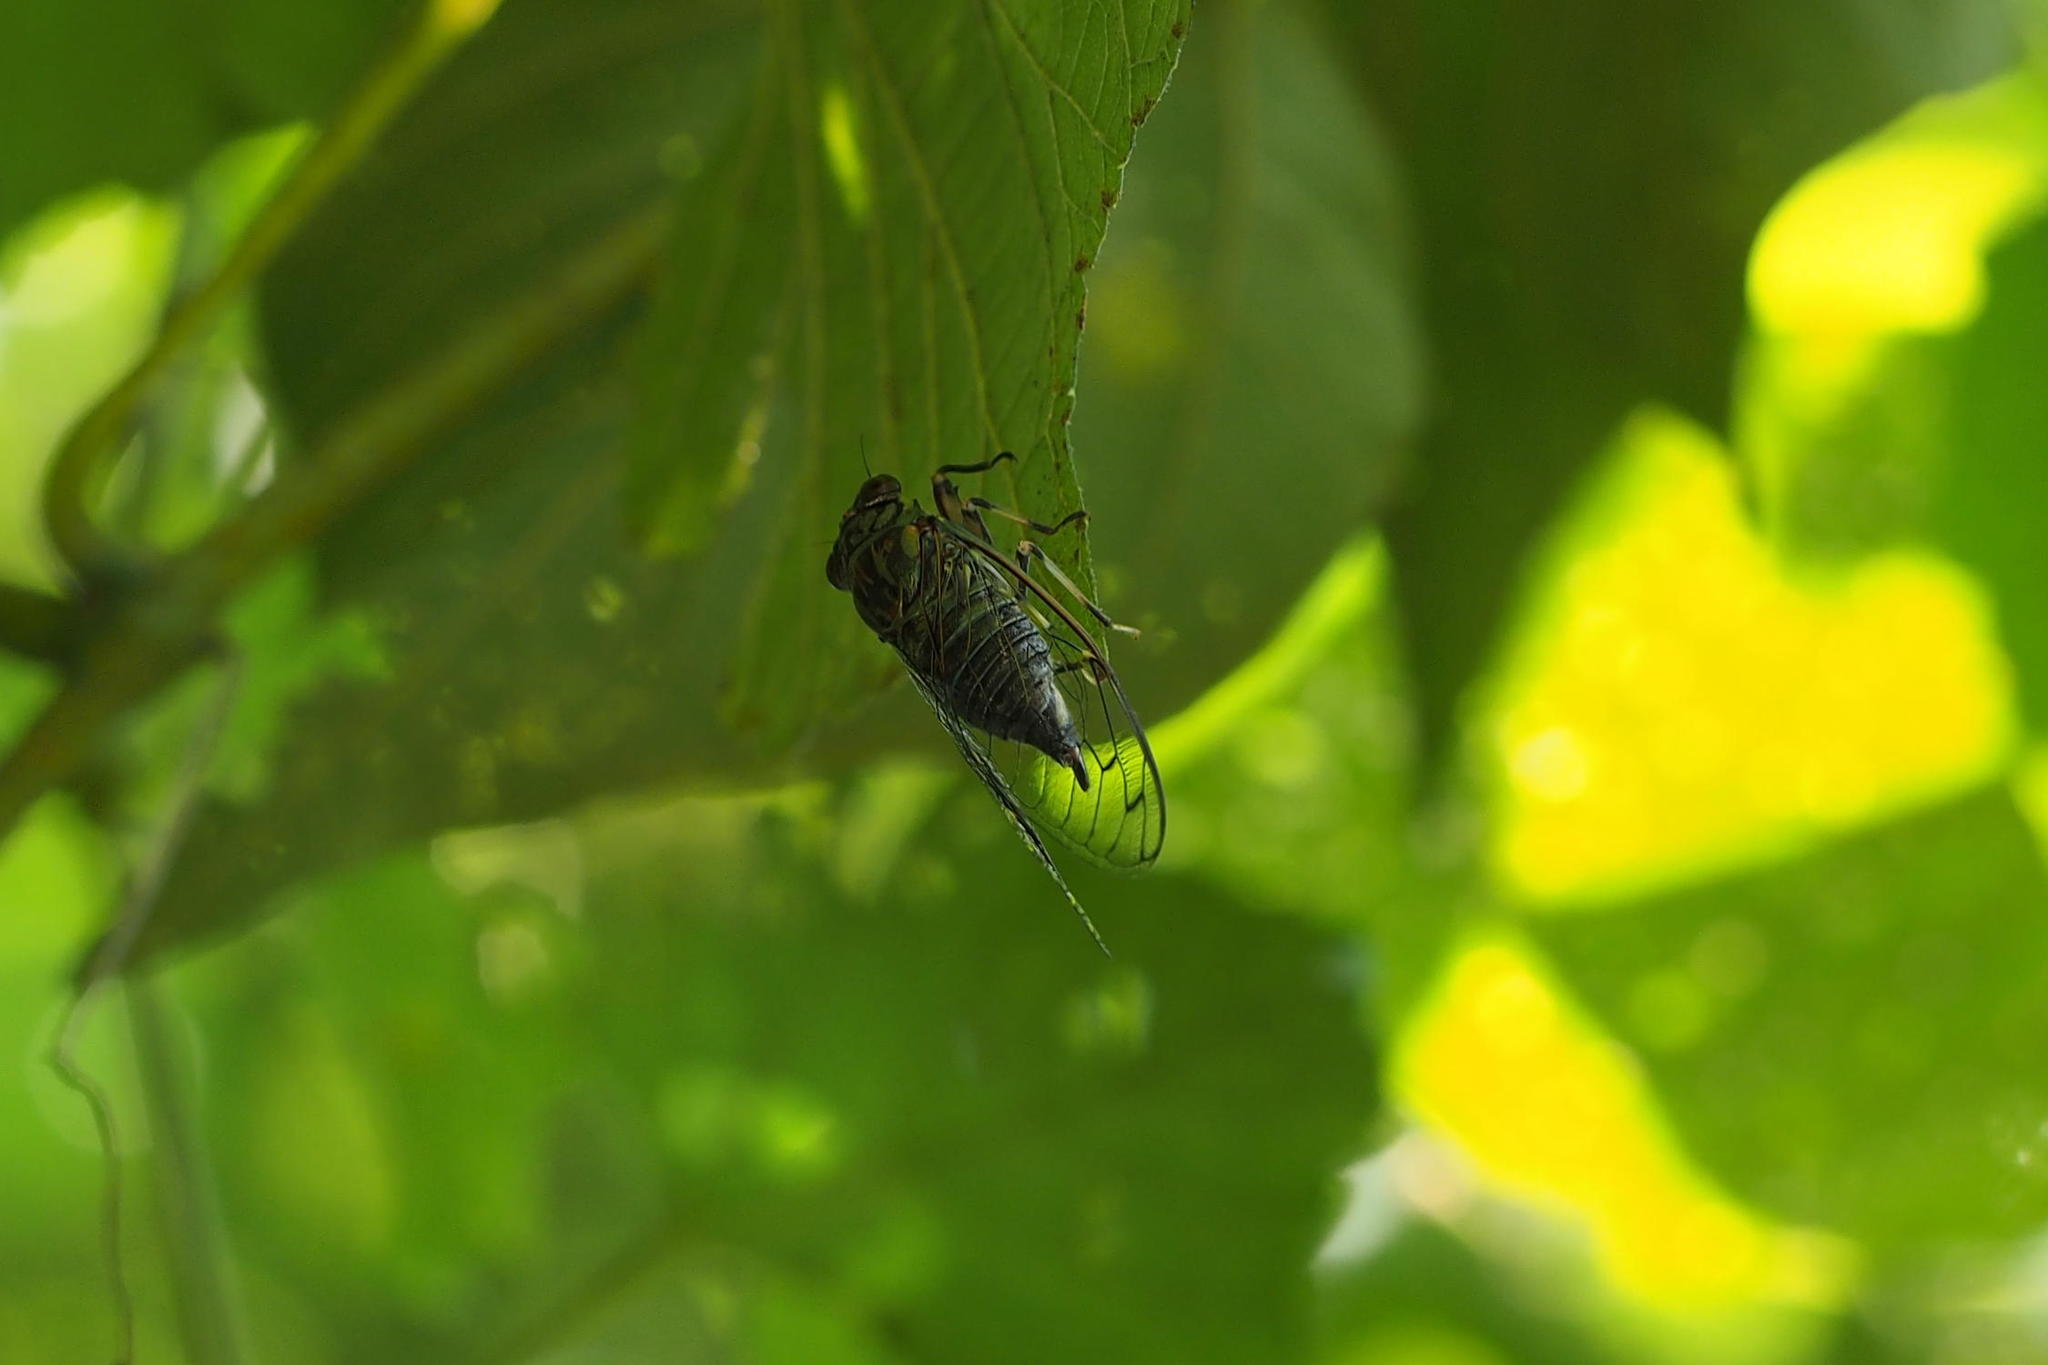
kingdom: Animalia
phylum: Arthropoda
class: Insecta
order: Hemiptera
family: Cicadidae
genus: Meimuna
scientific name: Meimuna opalifera
